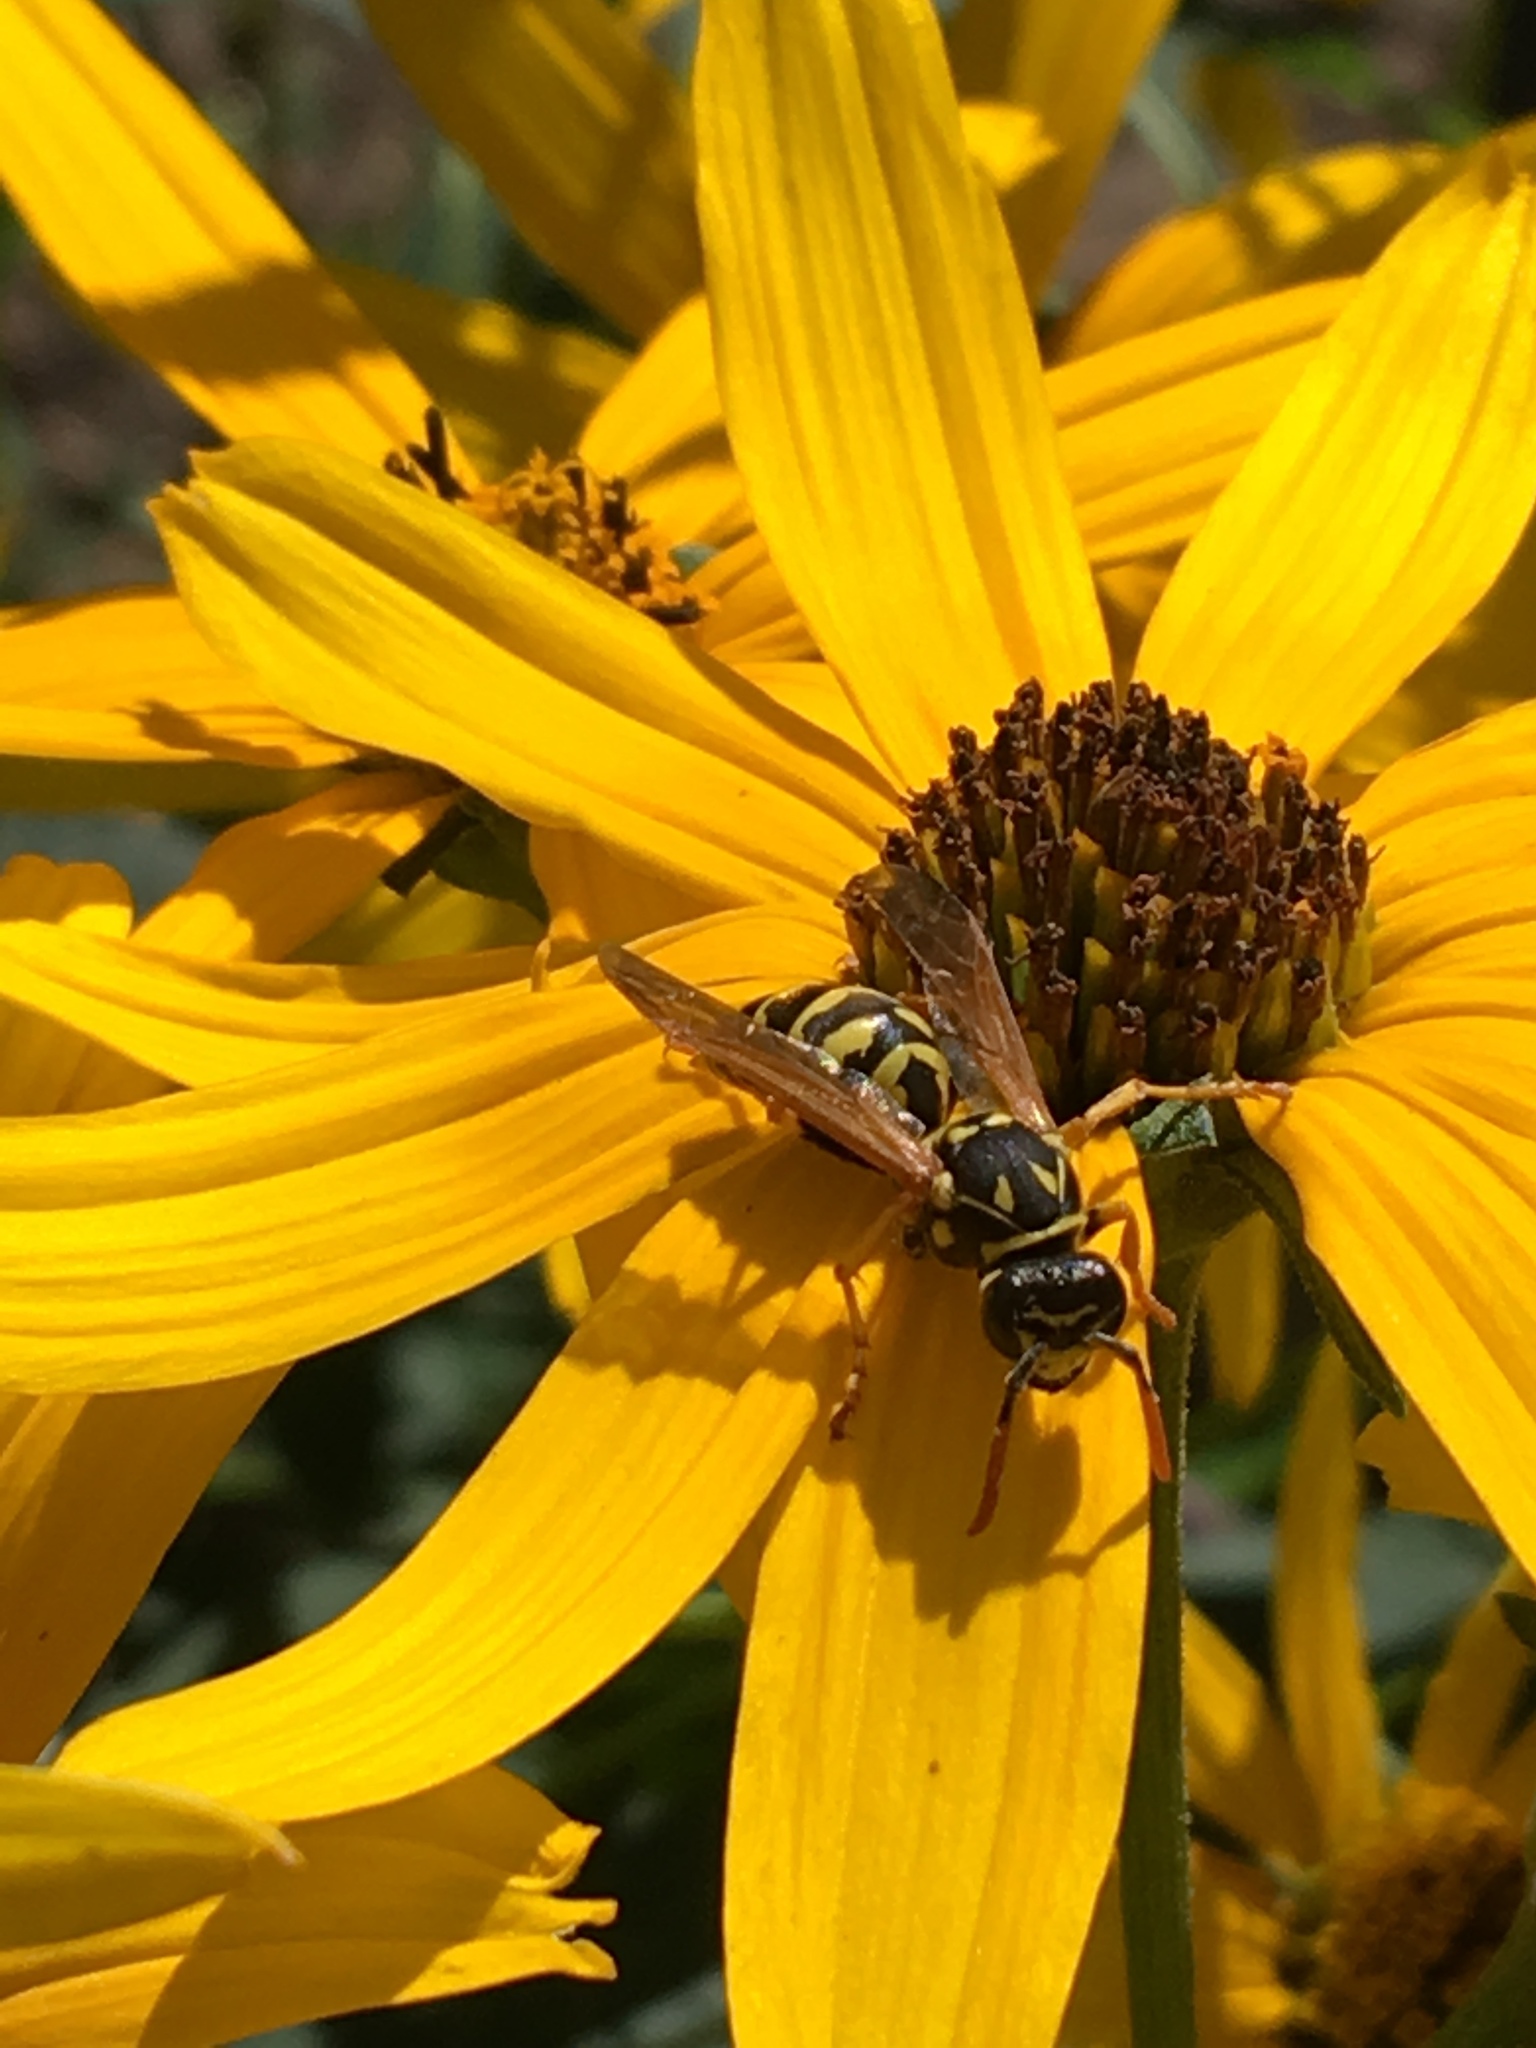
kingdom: Animalia
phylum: Arthropoda
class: Insecta
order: Hymenoptera
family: Eumenidae
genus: Polistes
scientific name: Polistes dominula
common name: Paper wasp
